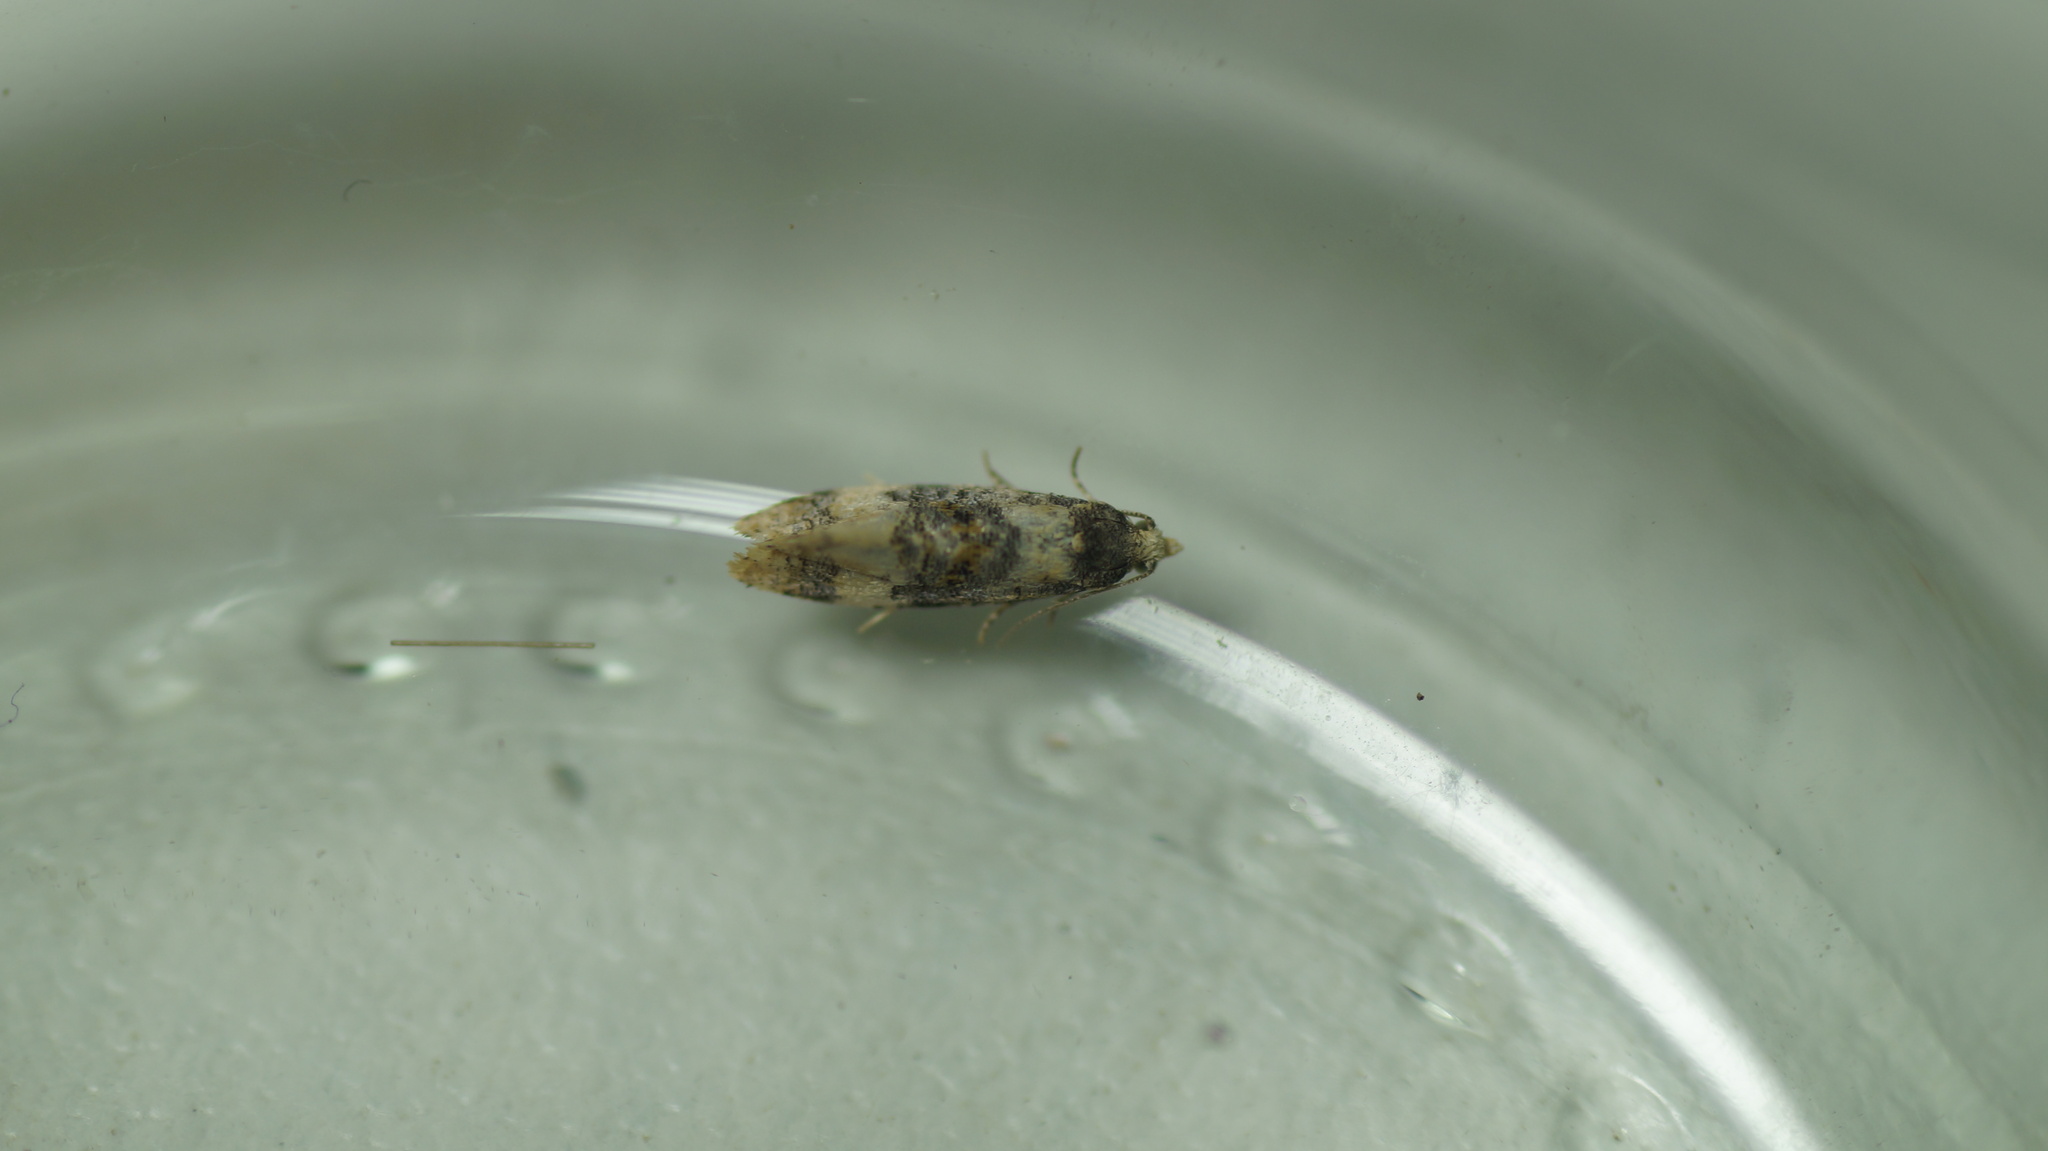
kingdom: Animalia
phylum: Arthropoda
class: Insecta
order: Lepidoptera
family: Tortricidae
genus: Thyraylia
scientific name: Thyraylia nana
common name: Birch conch
